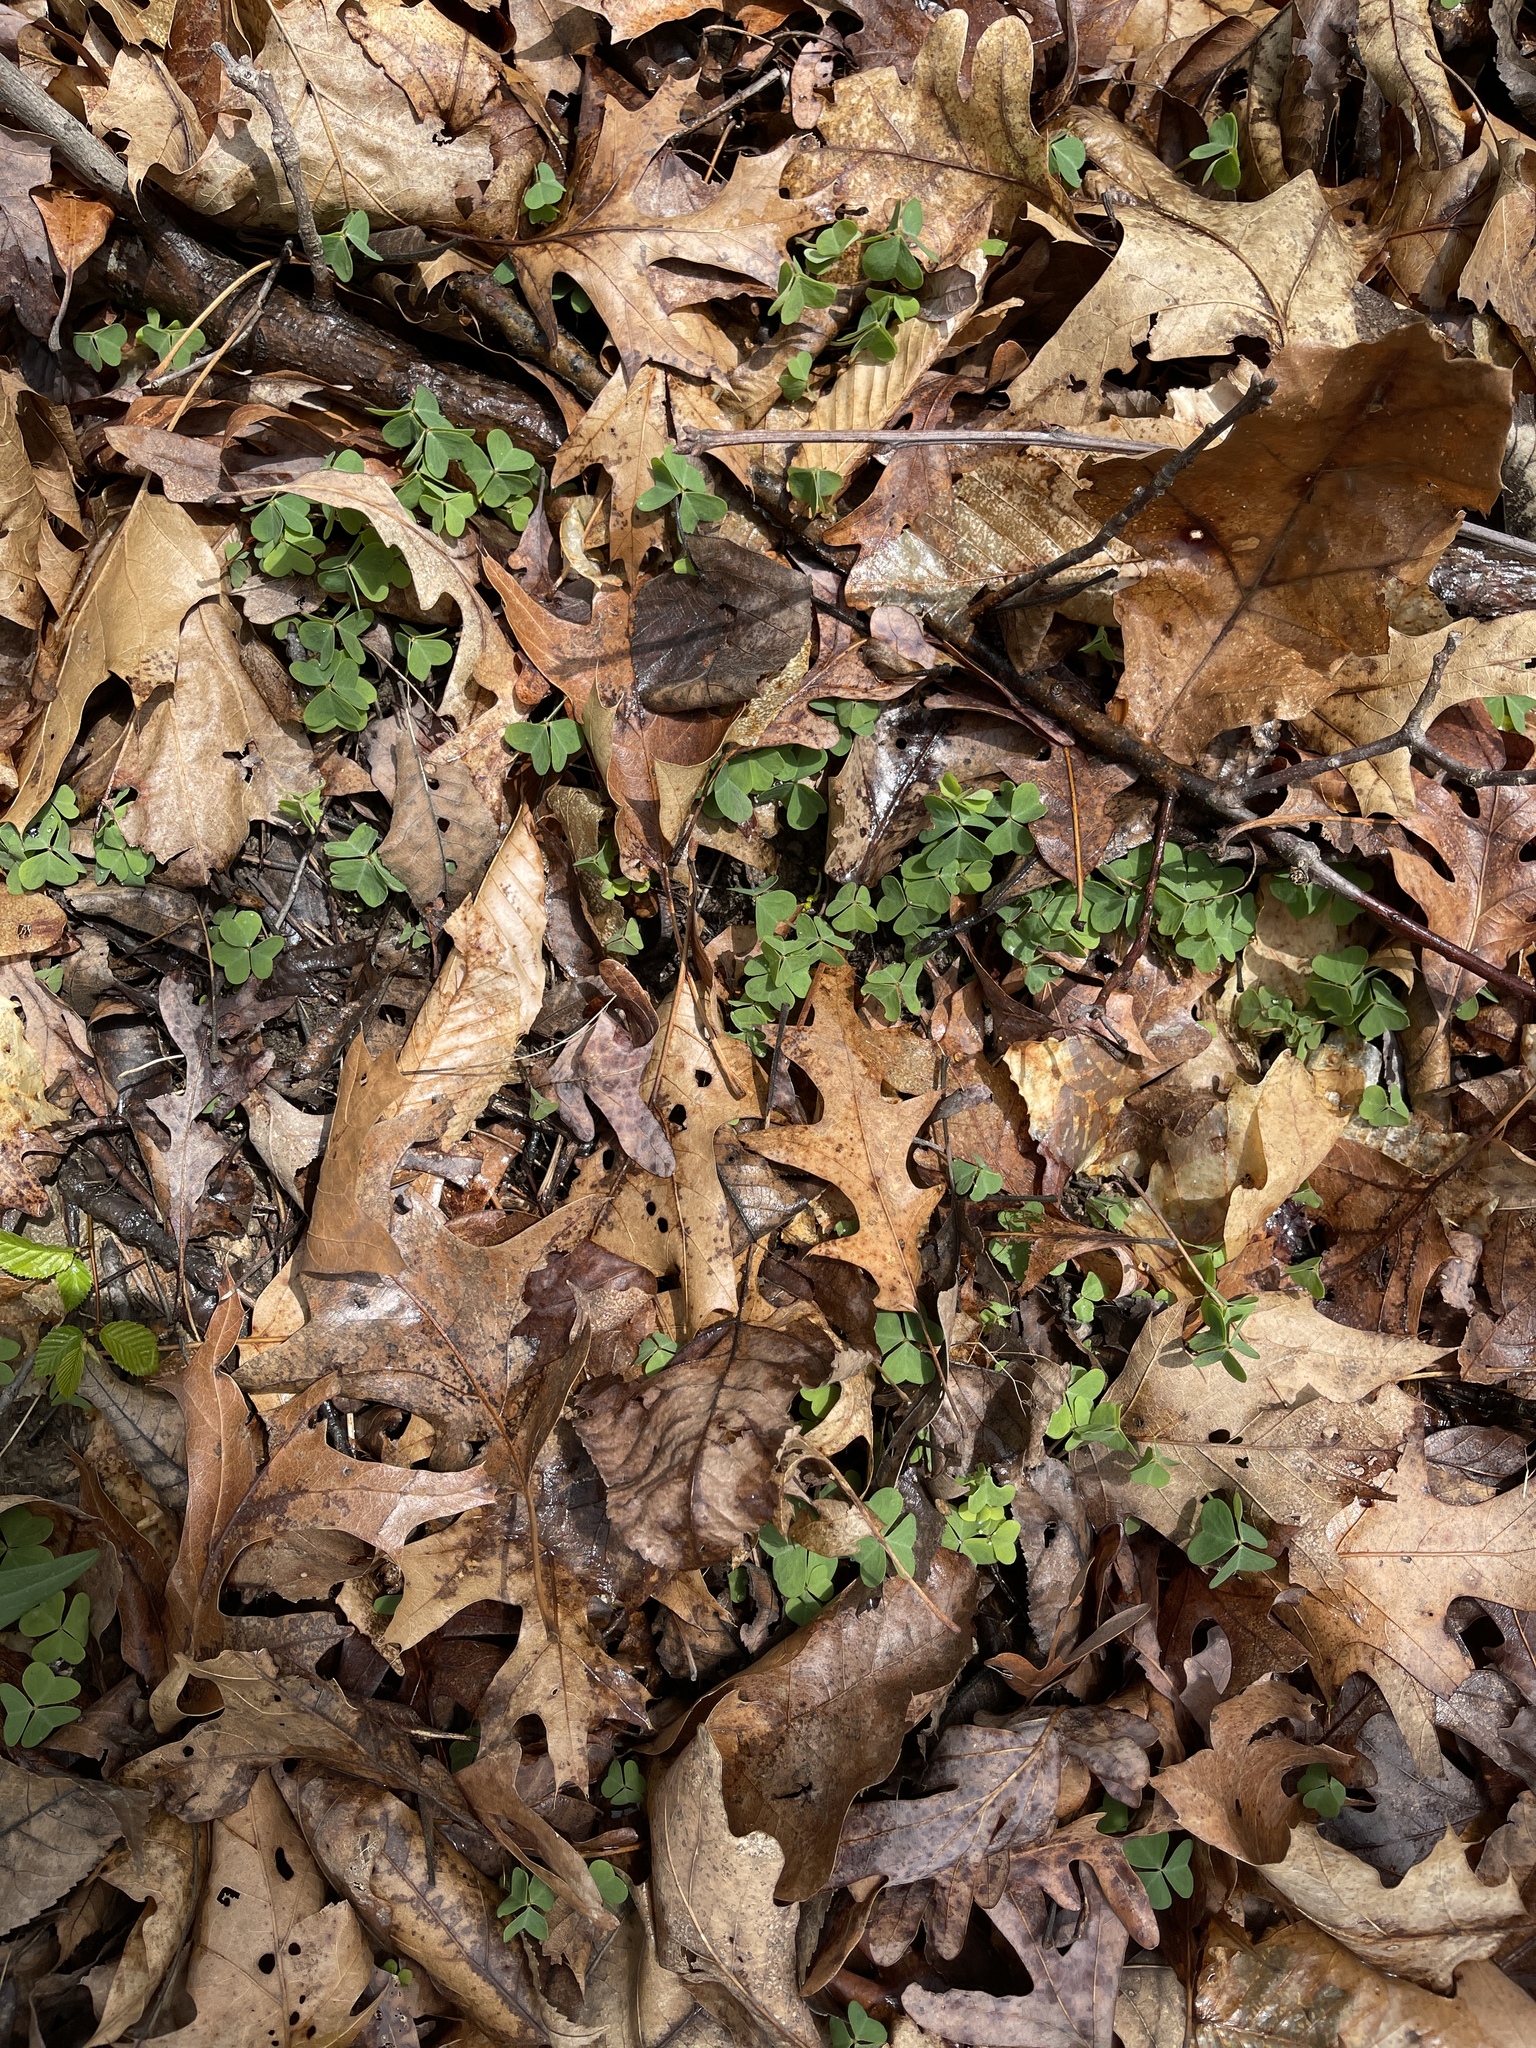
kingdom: Plantae
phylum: Tracheophyta
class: Magnoliopsida
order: Oxalidales
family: Oxalidaceae
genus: Oxalis
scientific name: Oxalis violacea
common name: Violet wood-sorrel
